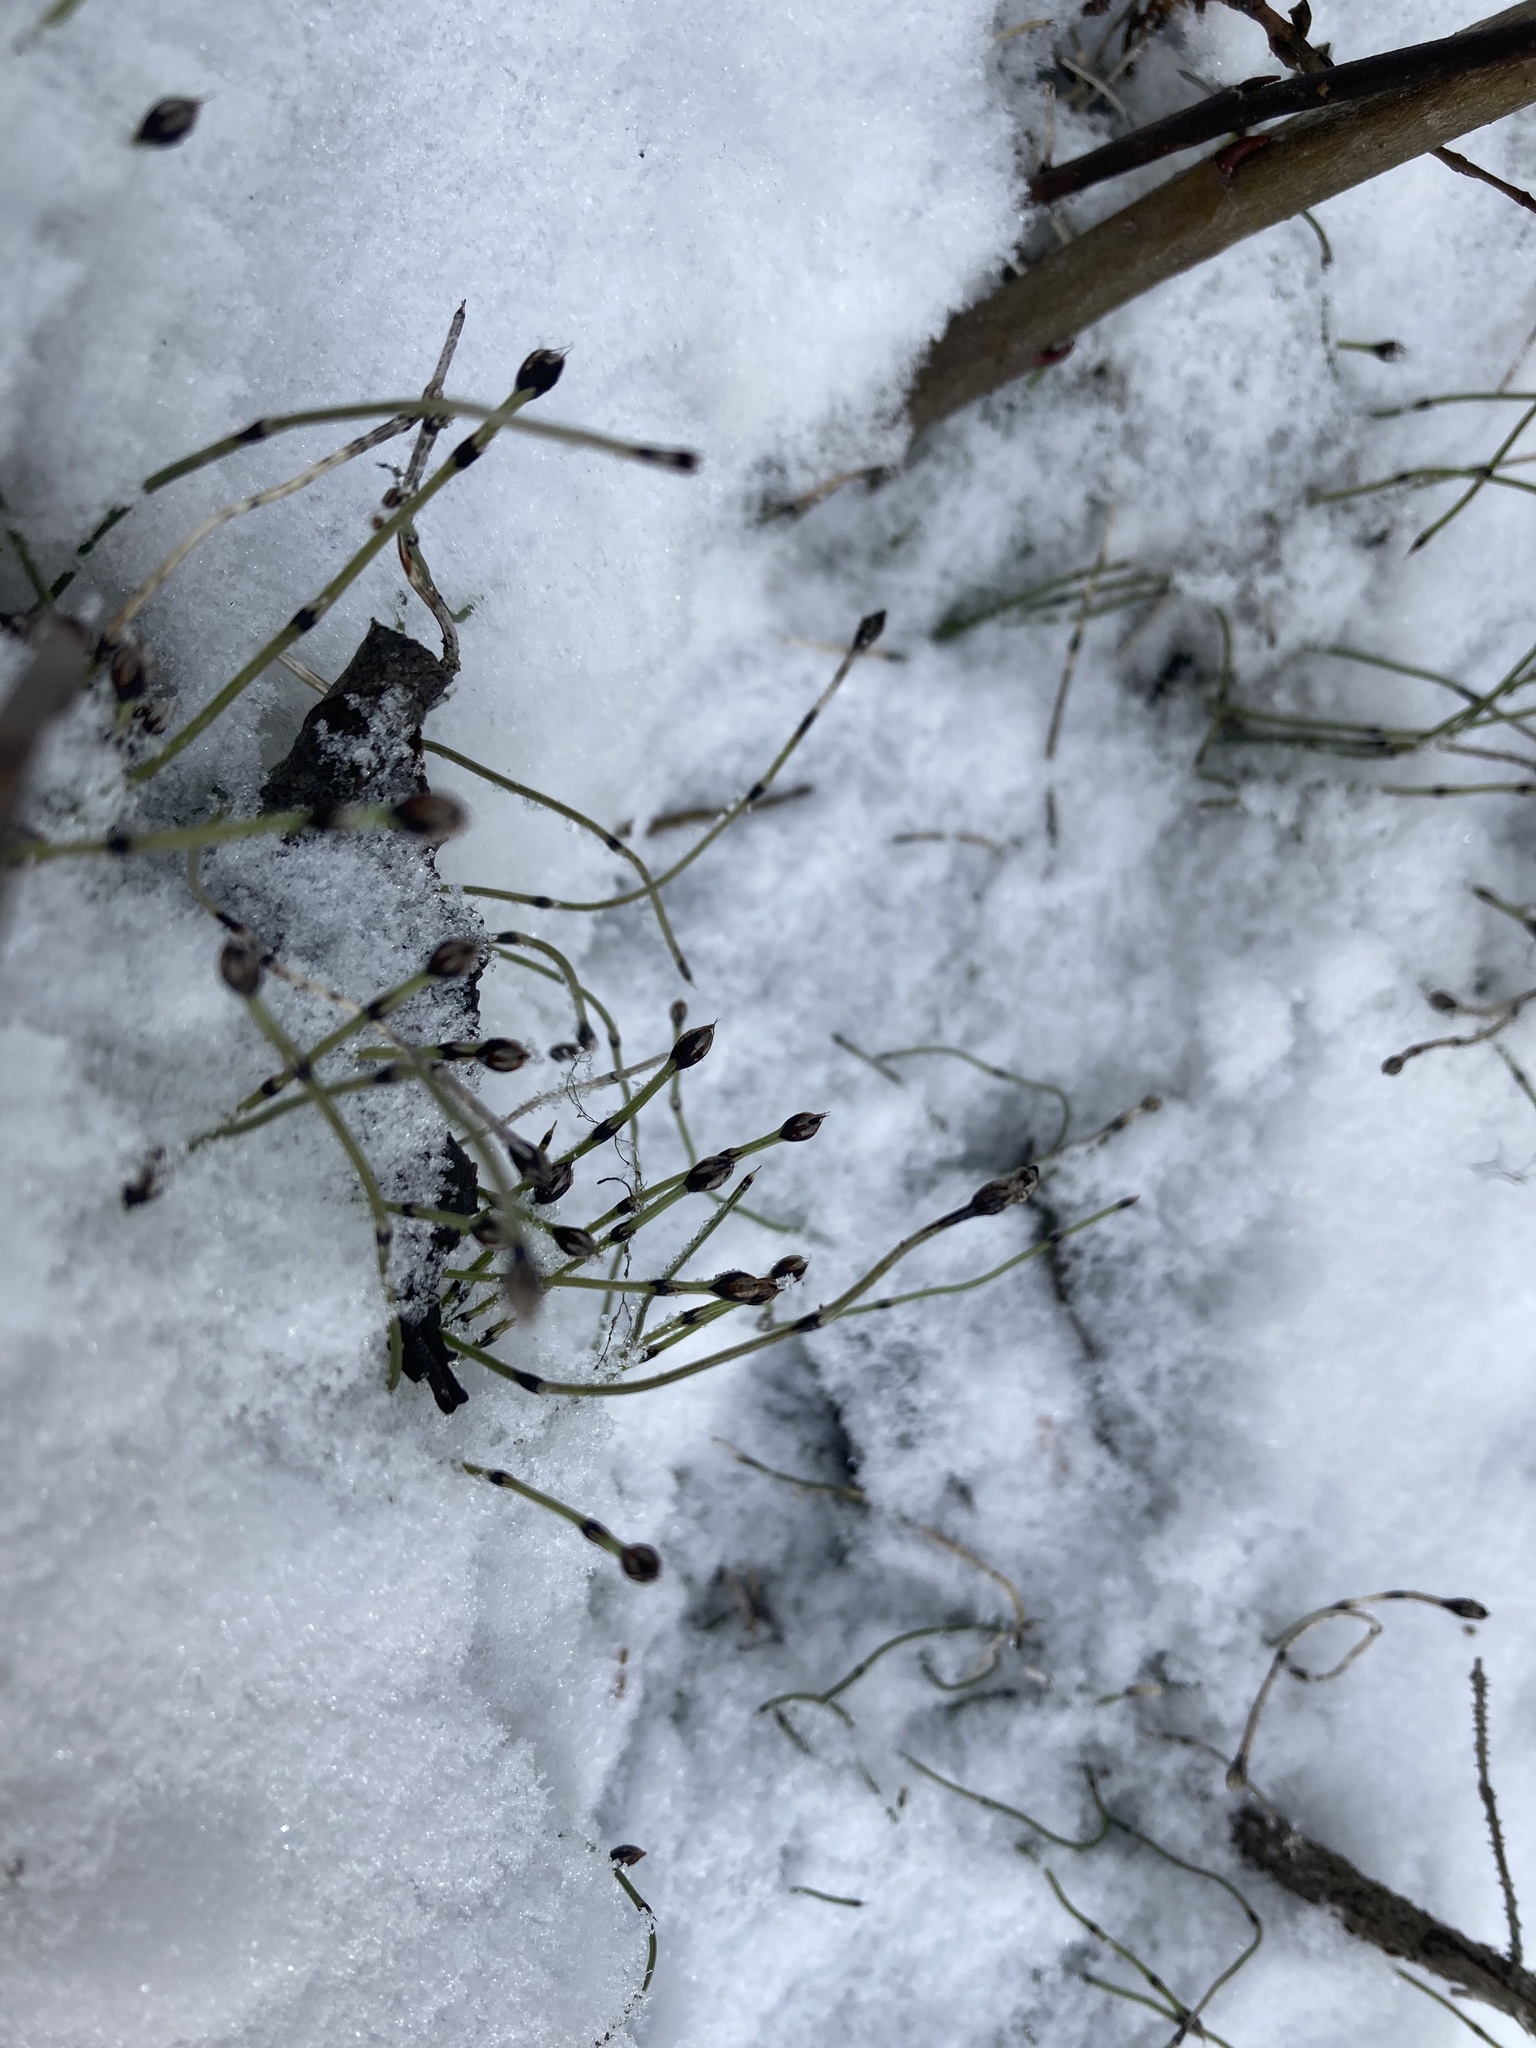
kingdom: Plantae
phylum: Tracheophyta
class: Polypodiopsida
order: Equisetales
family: Equisetaceae
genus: Equisetum
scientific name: Equisetum scirpoides
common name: Delicate horsetail
